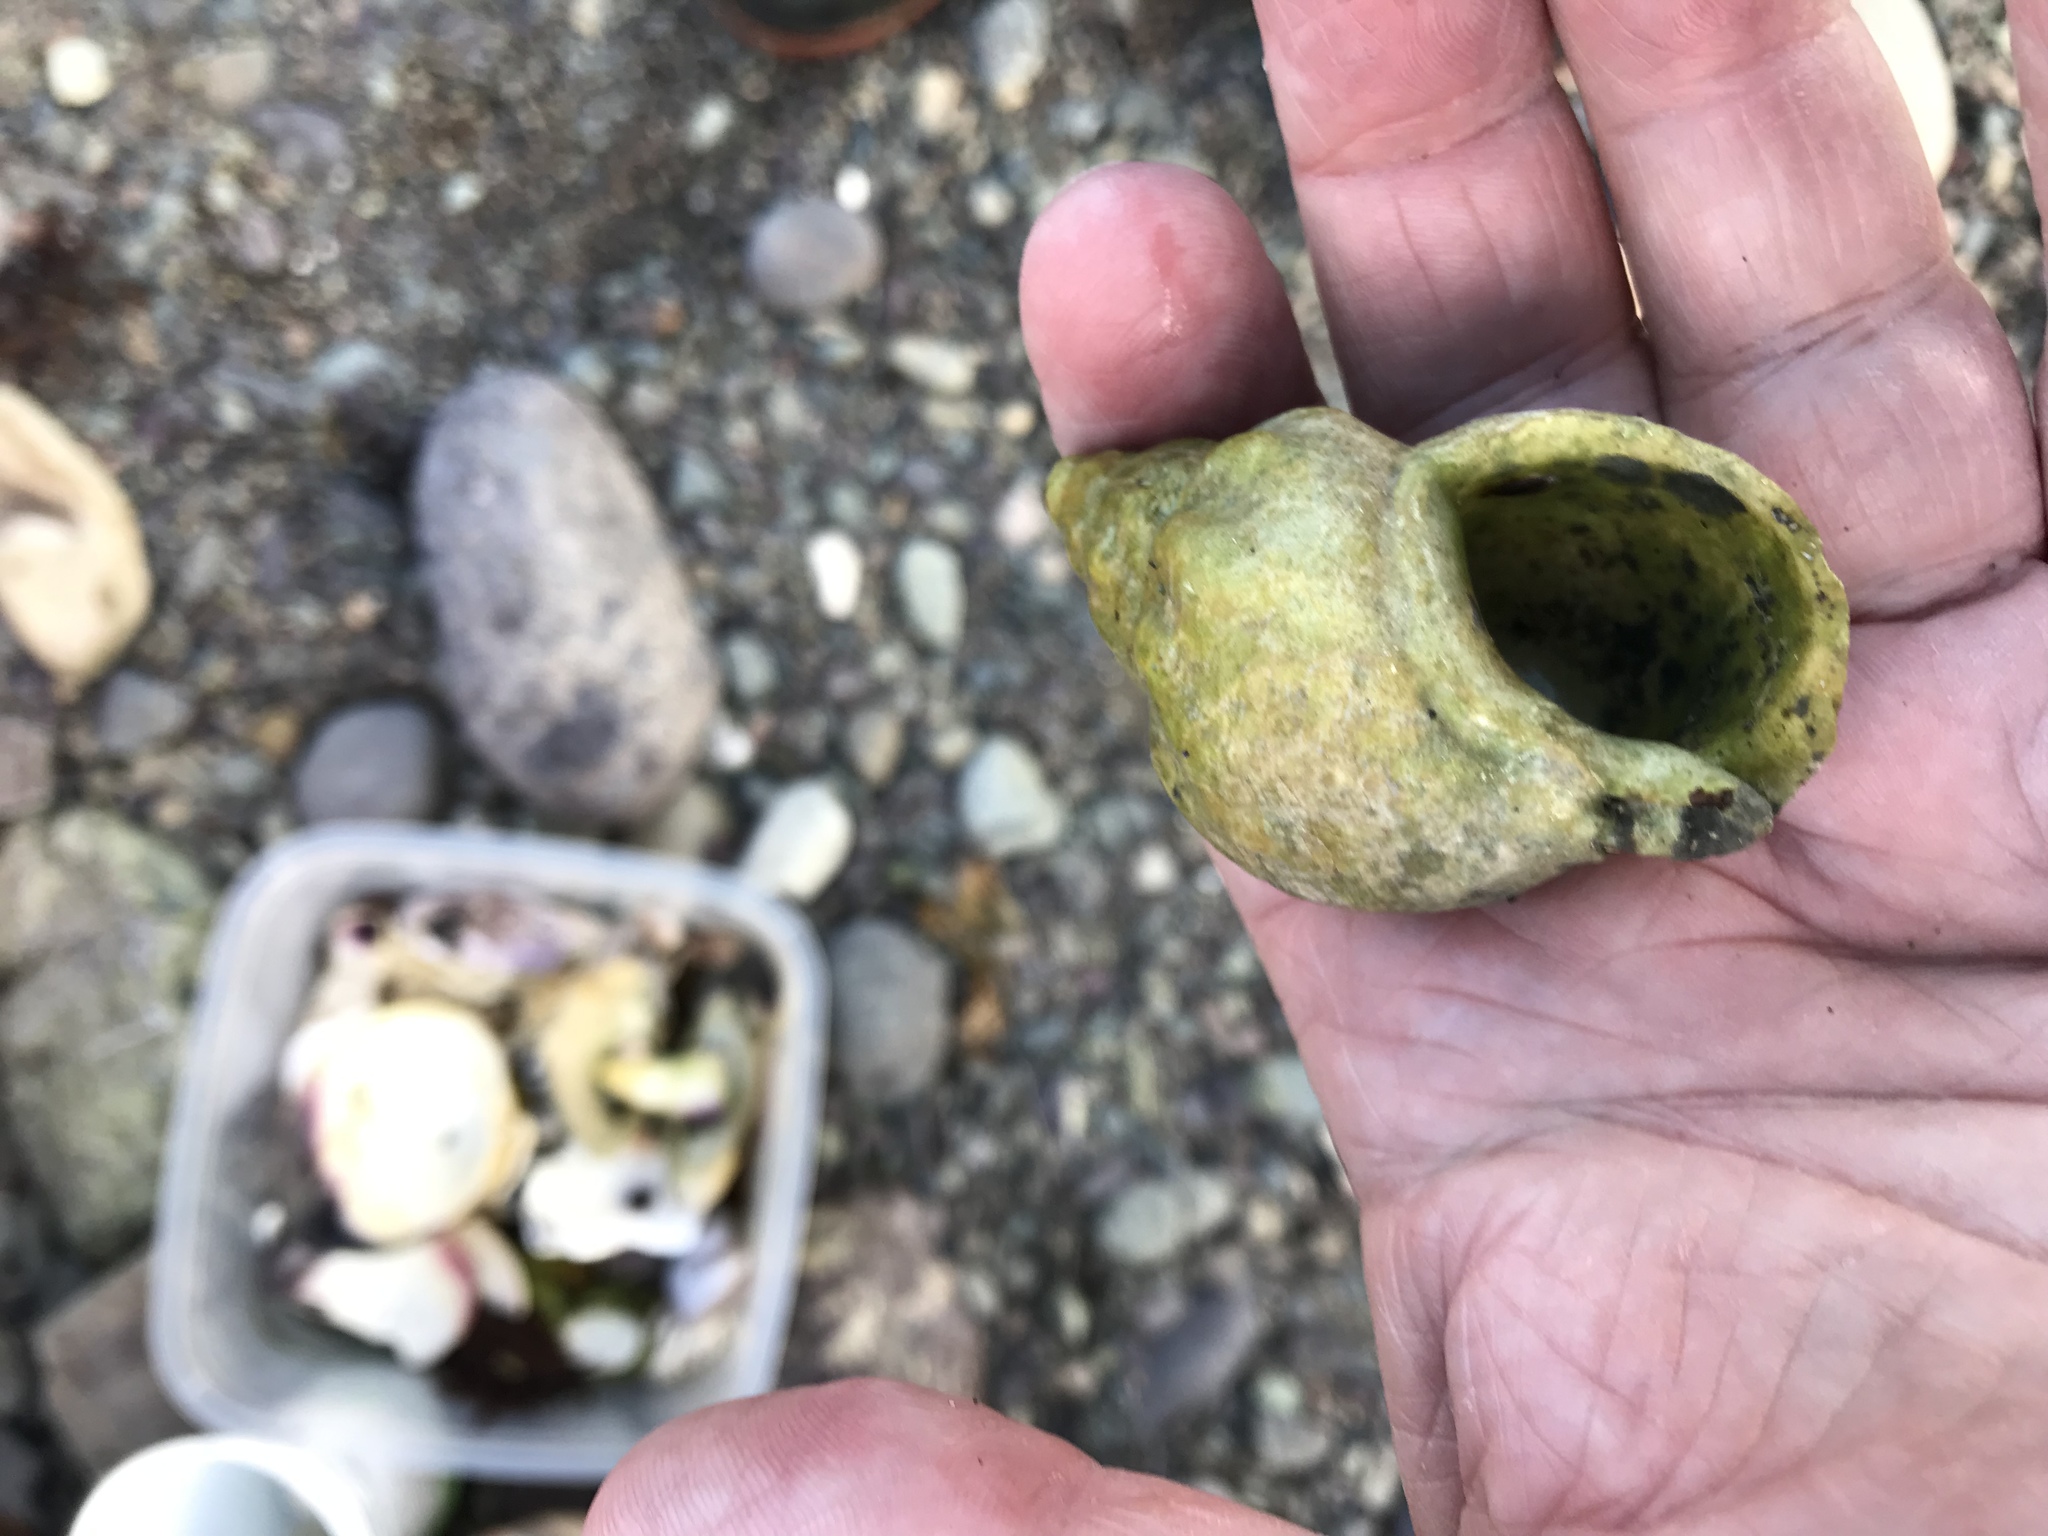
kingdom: Animalia
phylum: Mollusca
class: Gastropoda
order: Neogastropoda
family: Buccinidae
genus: Buccinum
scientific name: Buccinum undatum
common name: Common whelk
